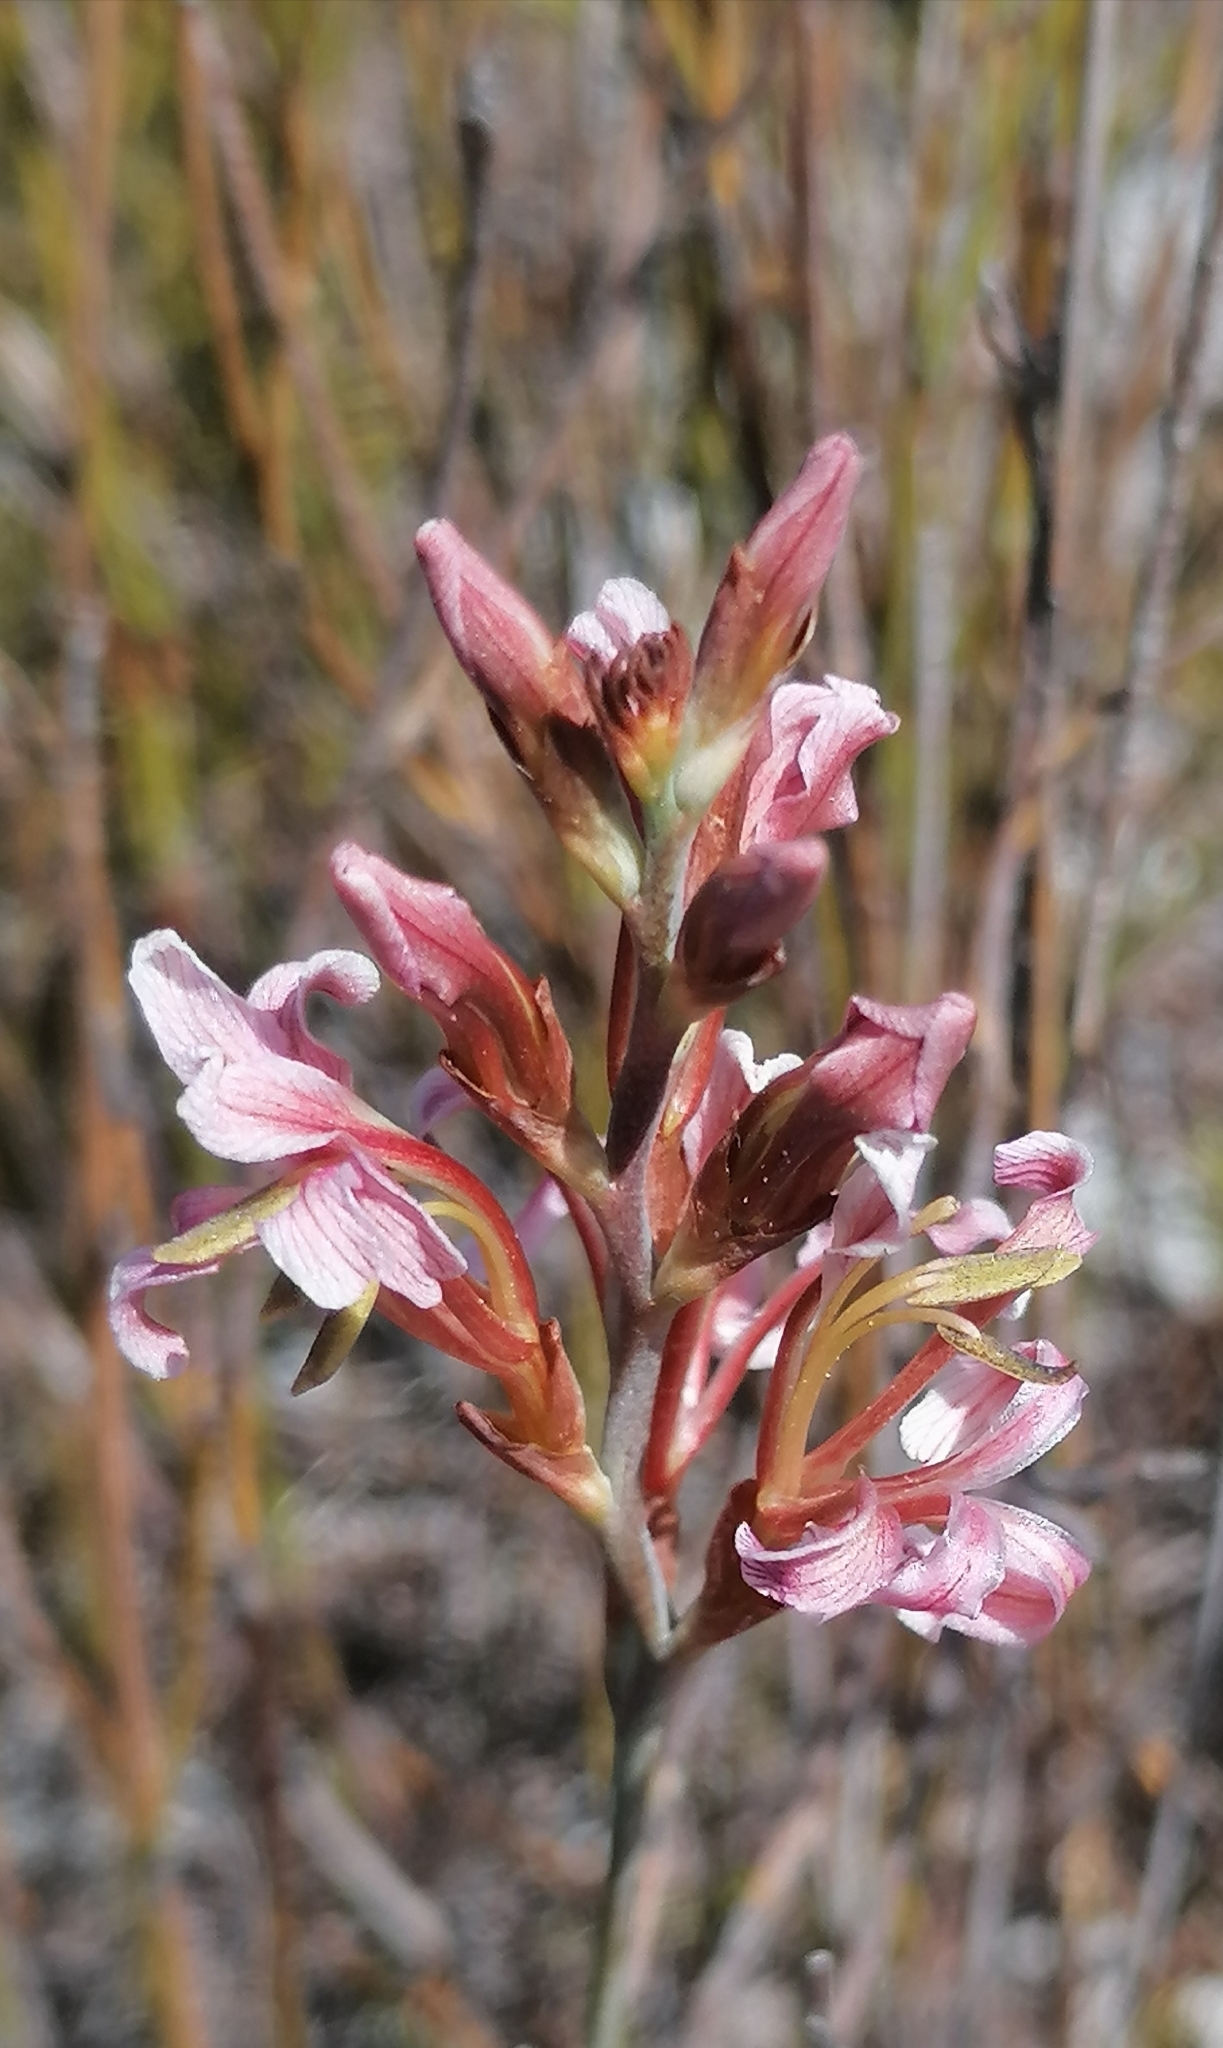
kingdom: Plantae
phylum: Tracheophyta
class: Liliopsida
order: Asparagales
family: Iridaceae
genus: Tritoniopsis
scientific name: Tritoniopsis dodii
